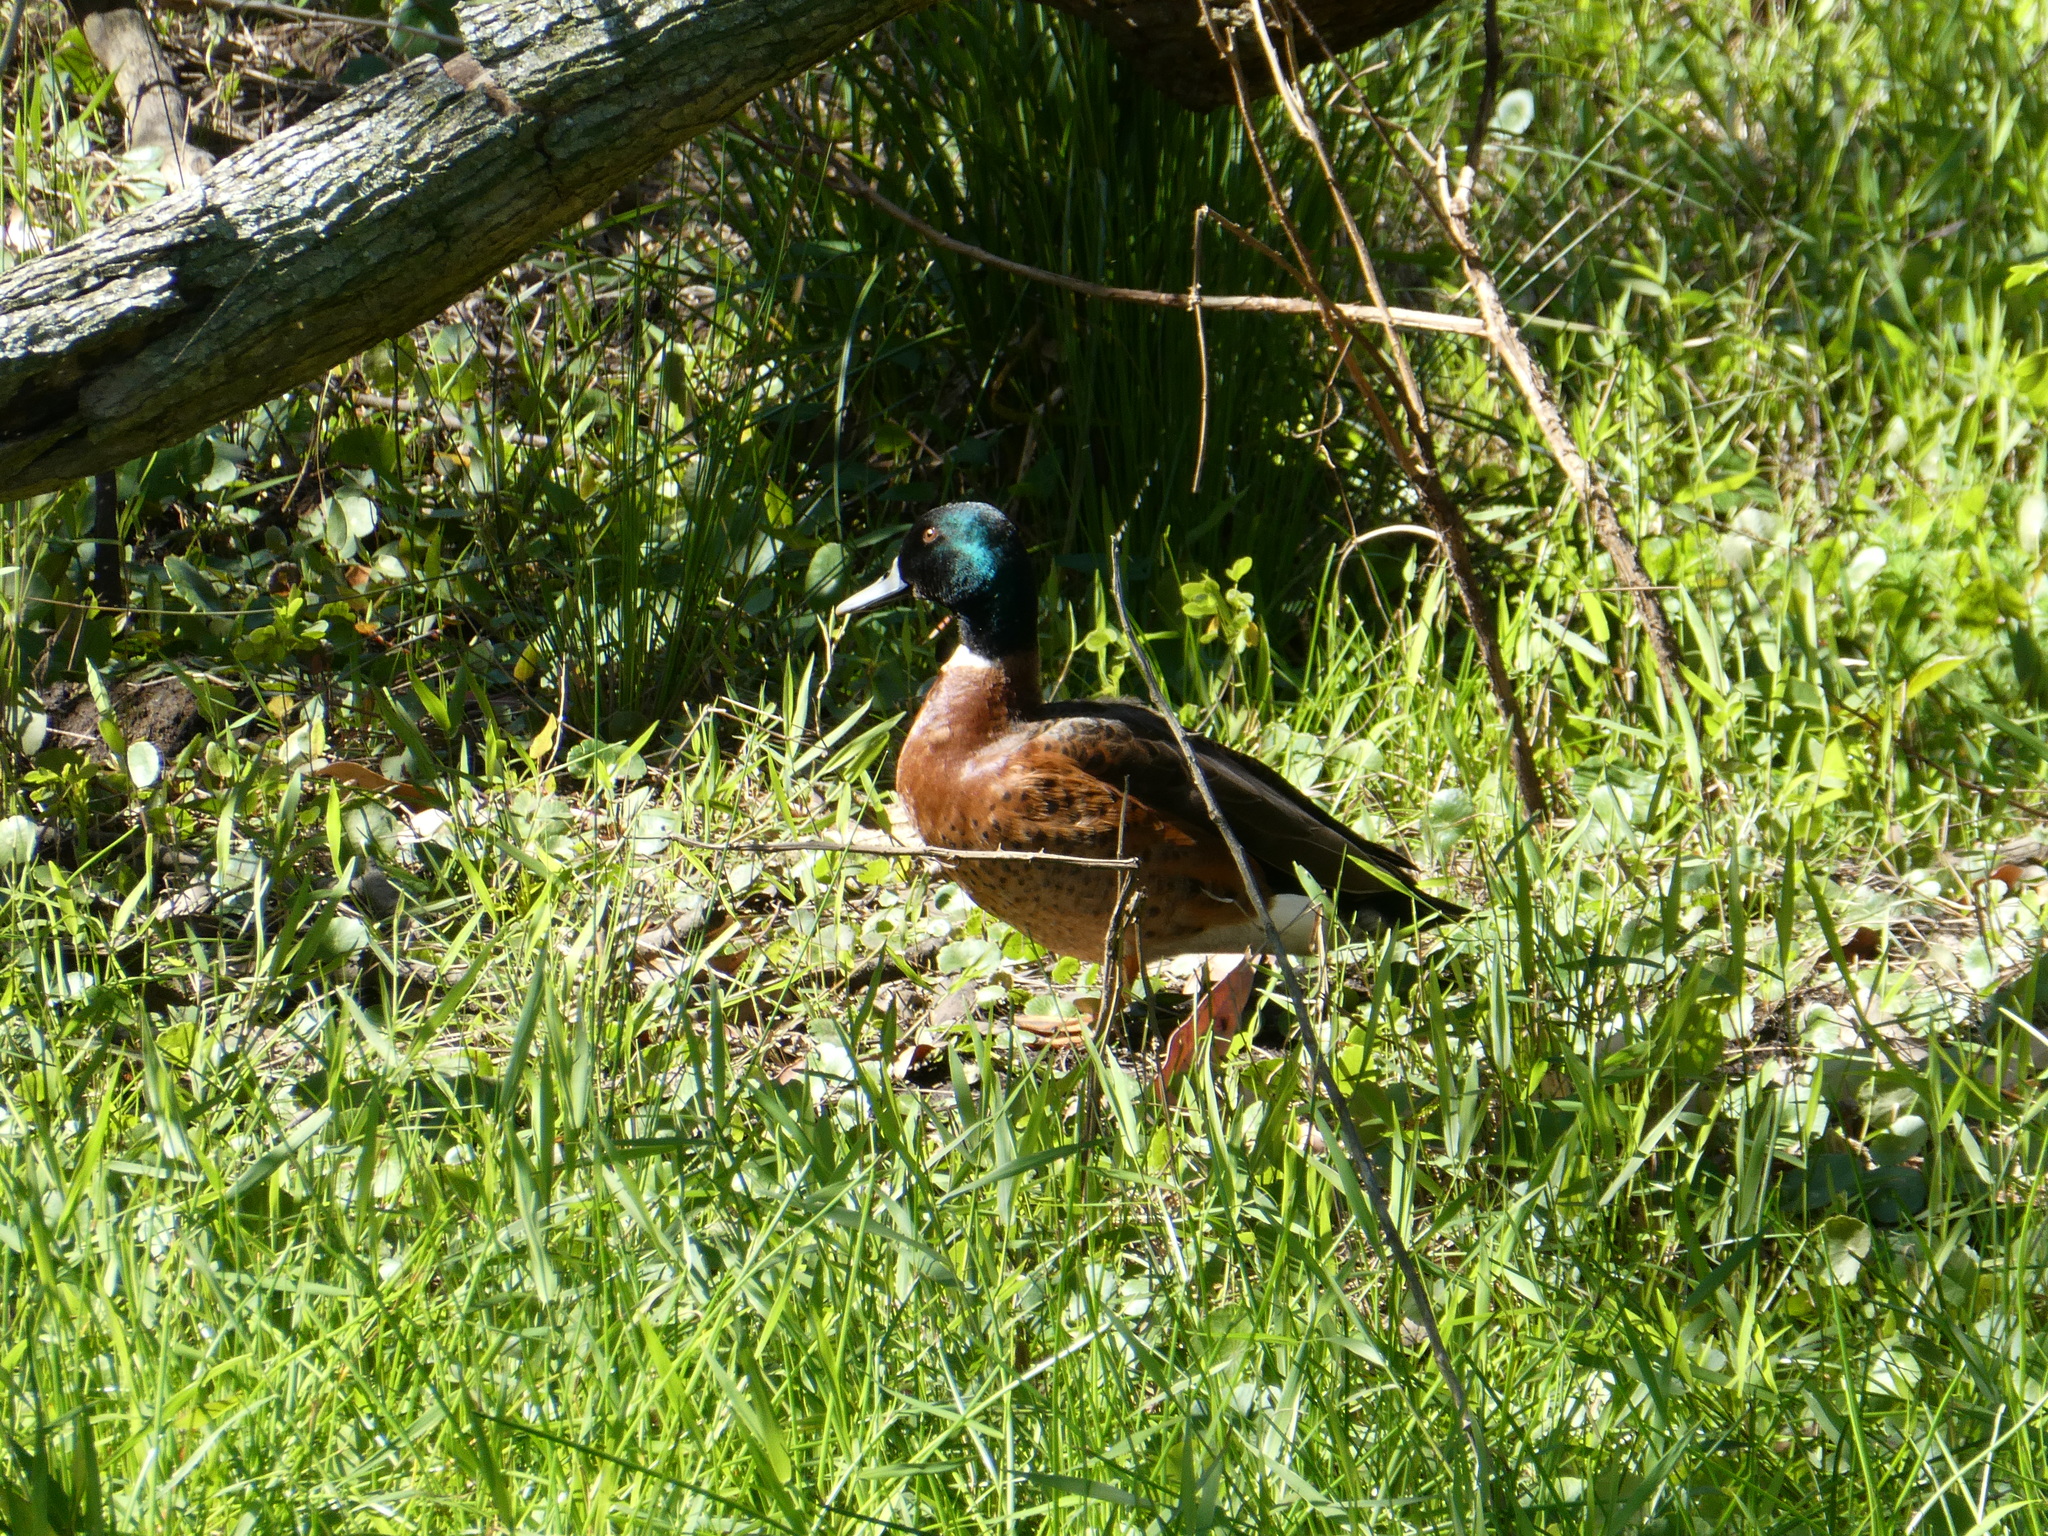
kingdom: Animalia
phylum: Chordata
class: Aves
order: Anseriformes
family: Anatidae
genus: Anas
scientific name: Anas castanea
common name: Chestnut teal
